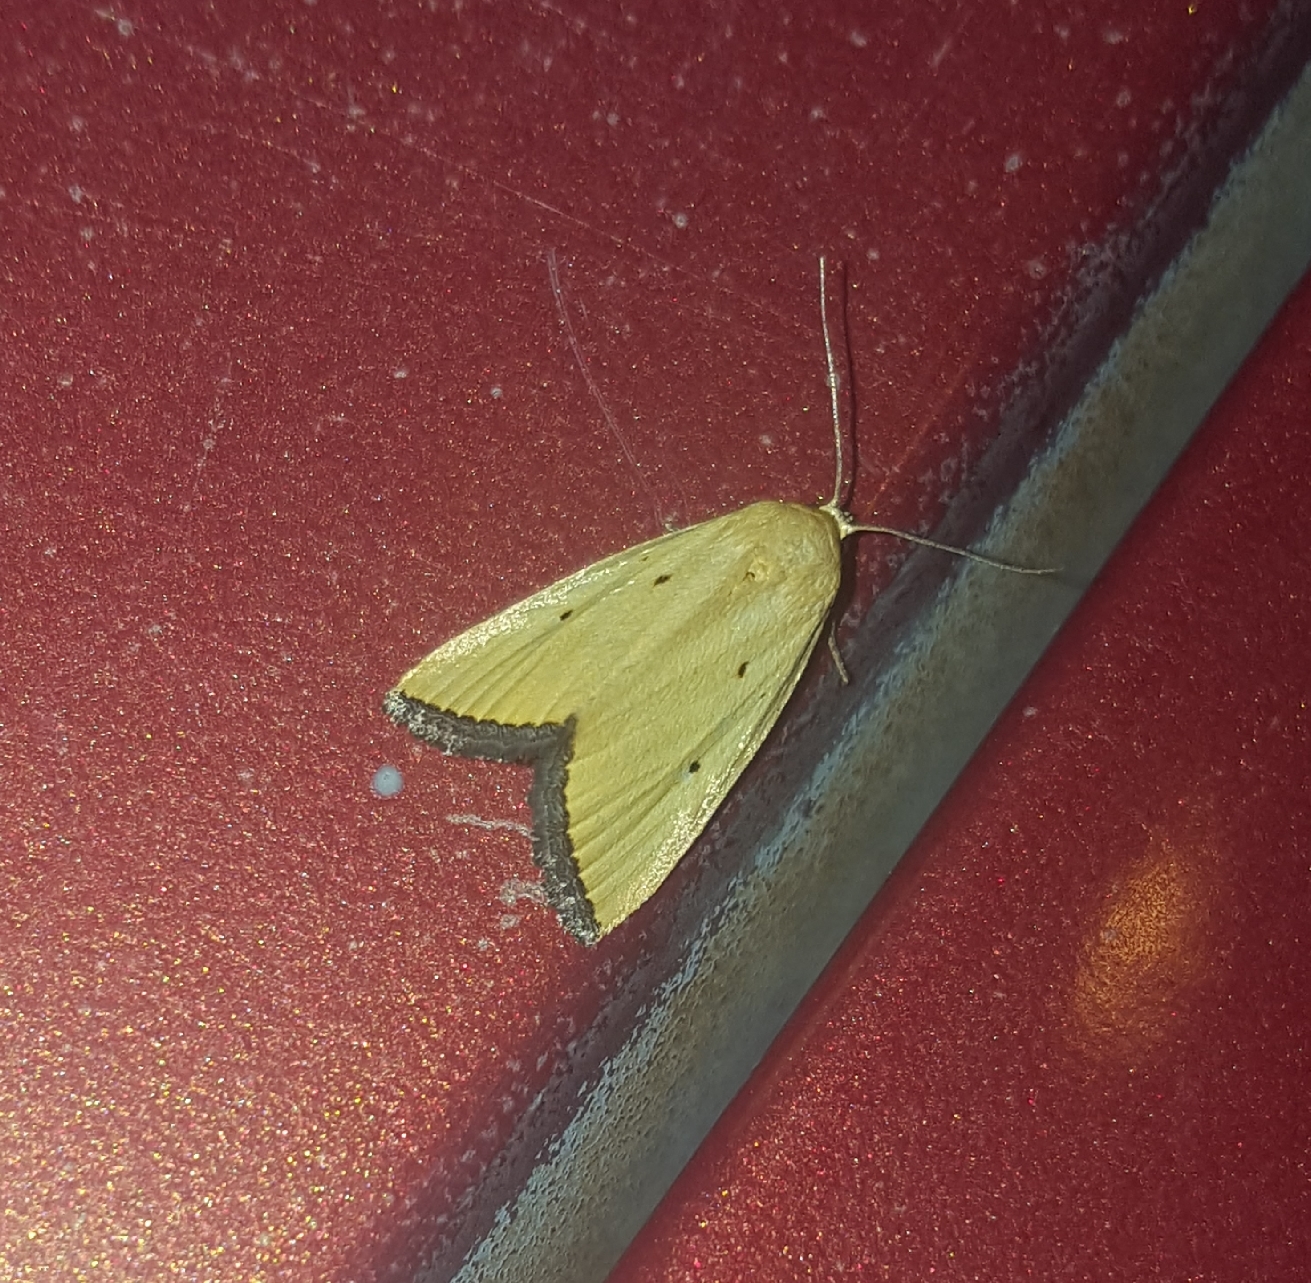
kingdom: Animalia
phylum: Arthropoda
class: Insecta
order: Lepidoptera
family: Noctuidae
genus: Marimatha
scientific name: Marimatha nigrofimbria
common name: Black-bordered lemon moth
